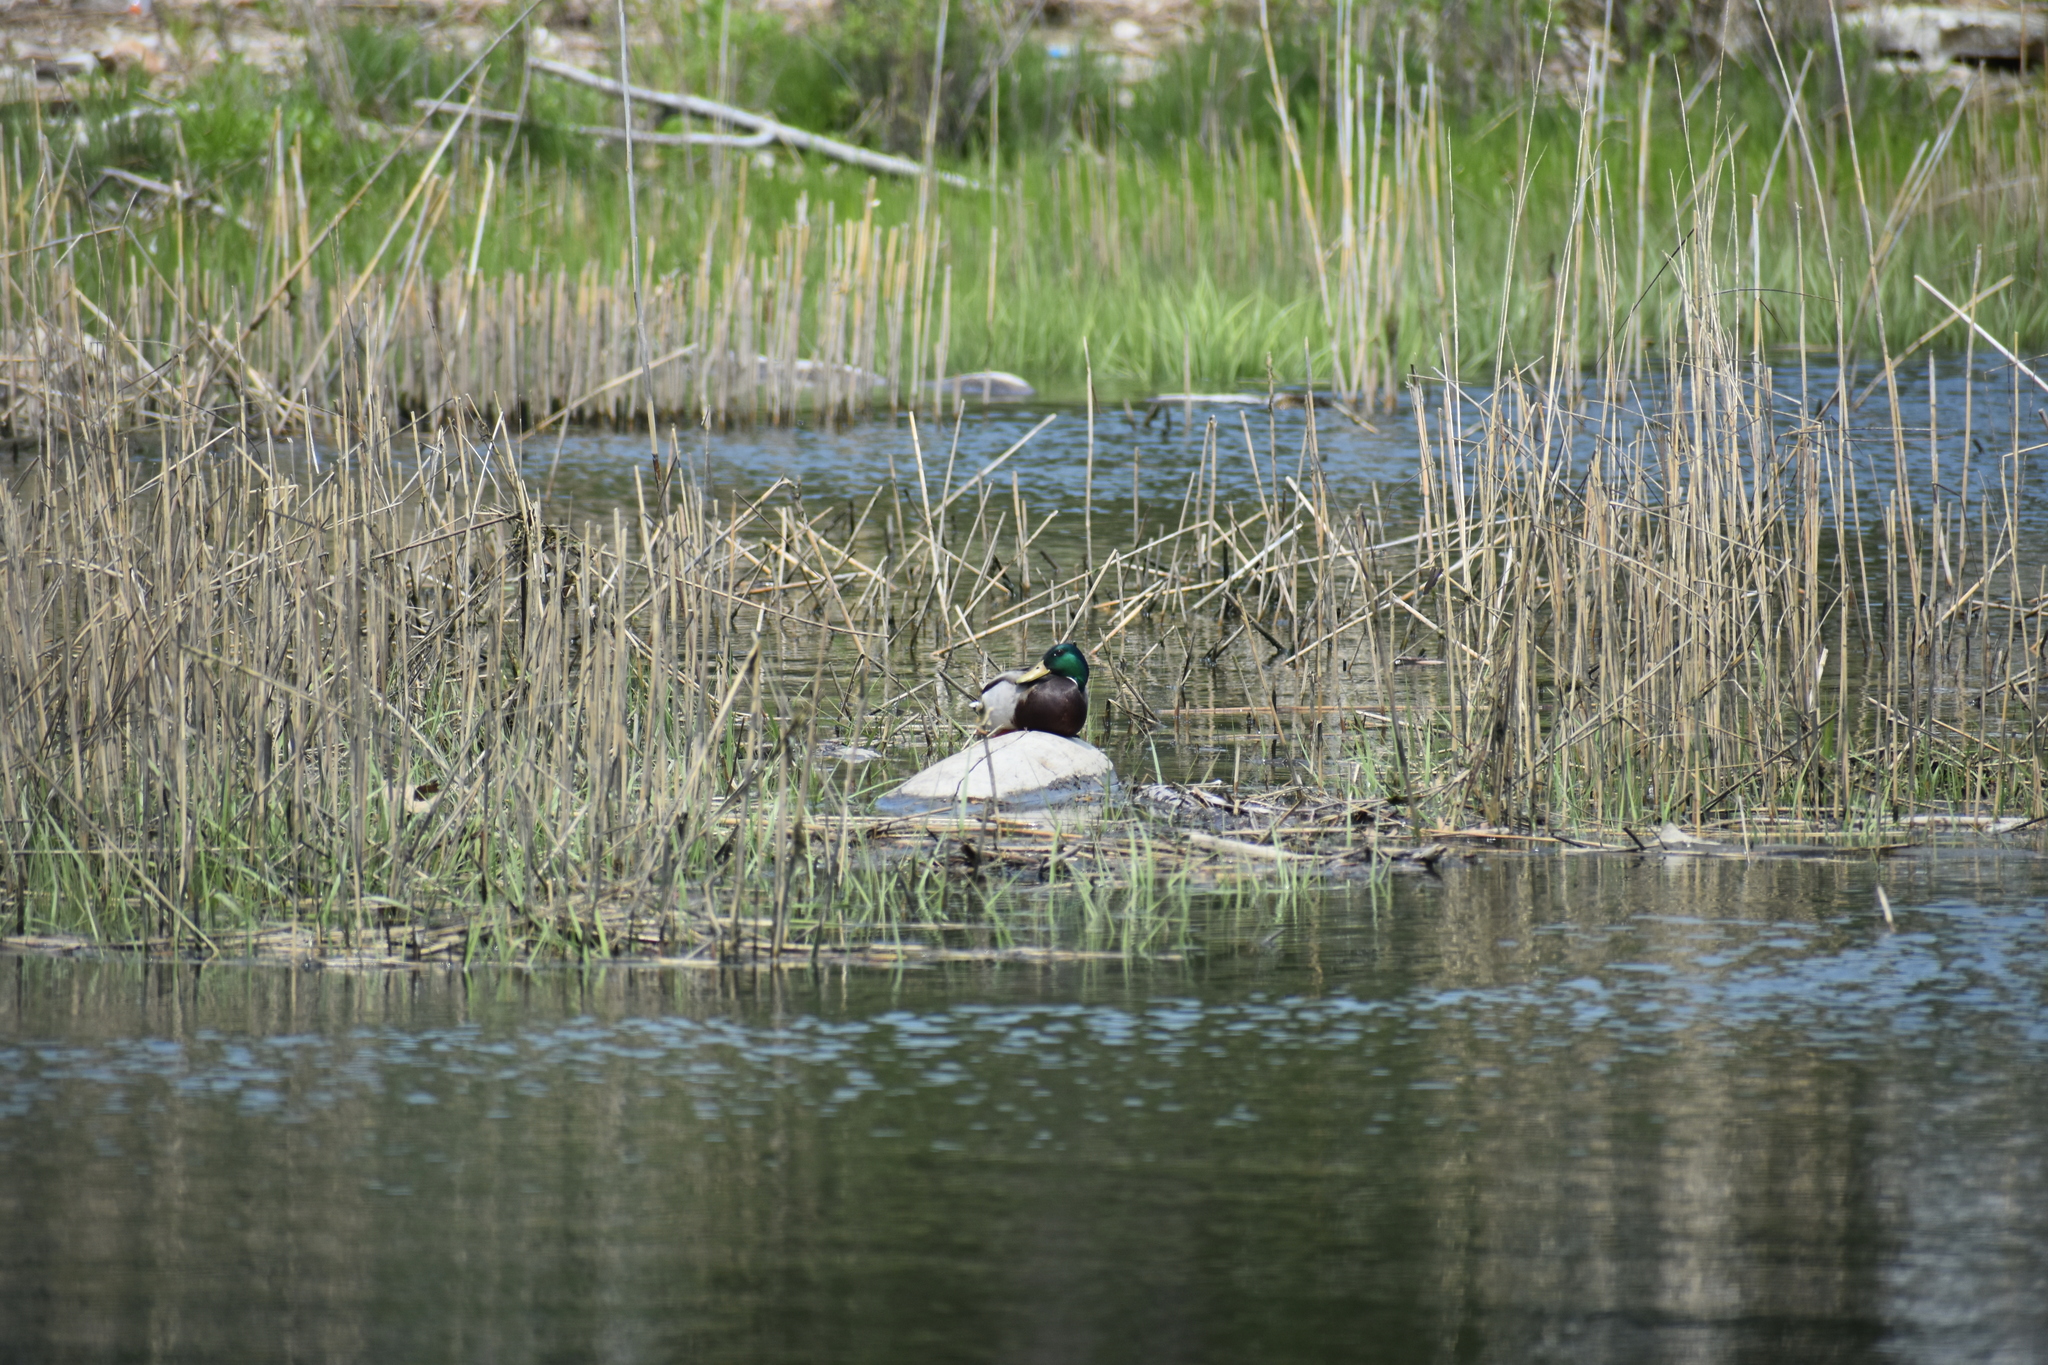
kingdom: Animalia
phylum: Chordata
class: Aves
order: Anseriformes
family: Anatidae
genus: Anas
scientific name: Anas platyrhynchos
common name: Mallard
